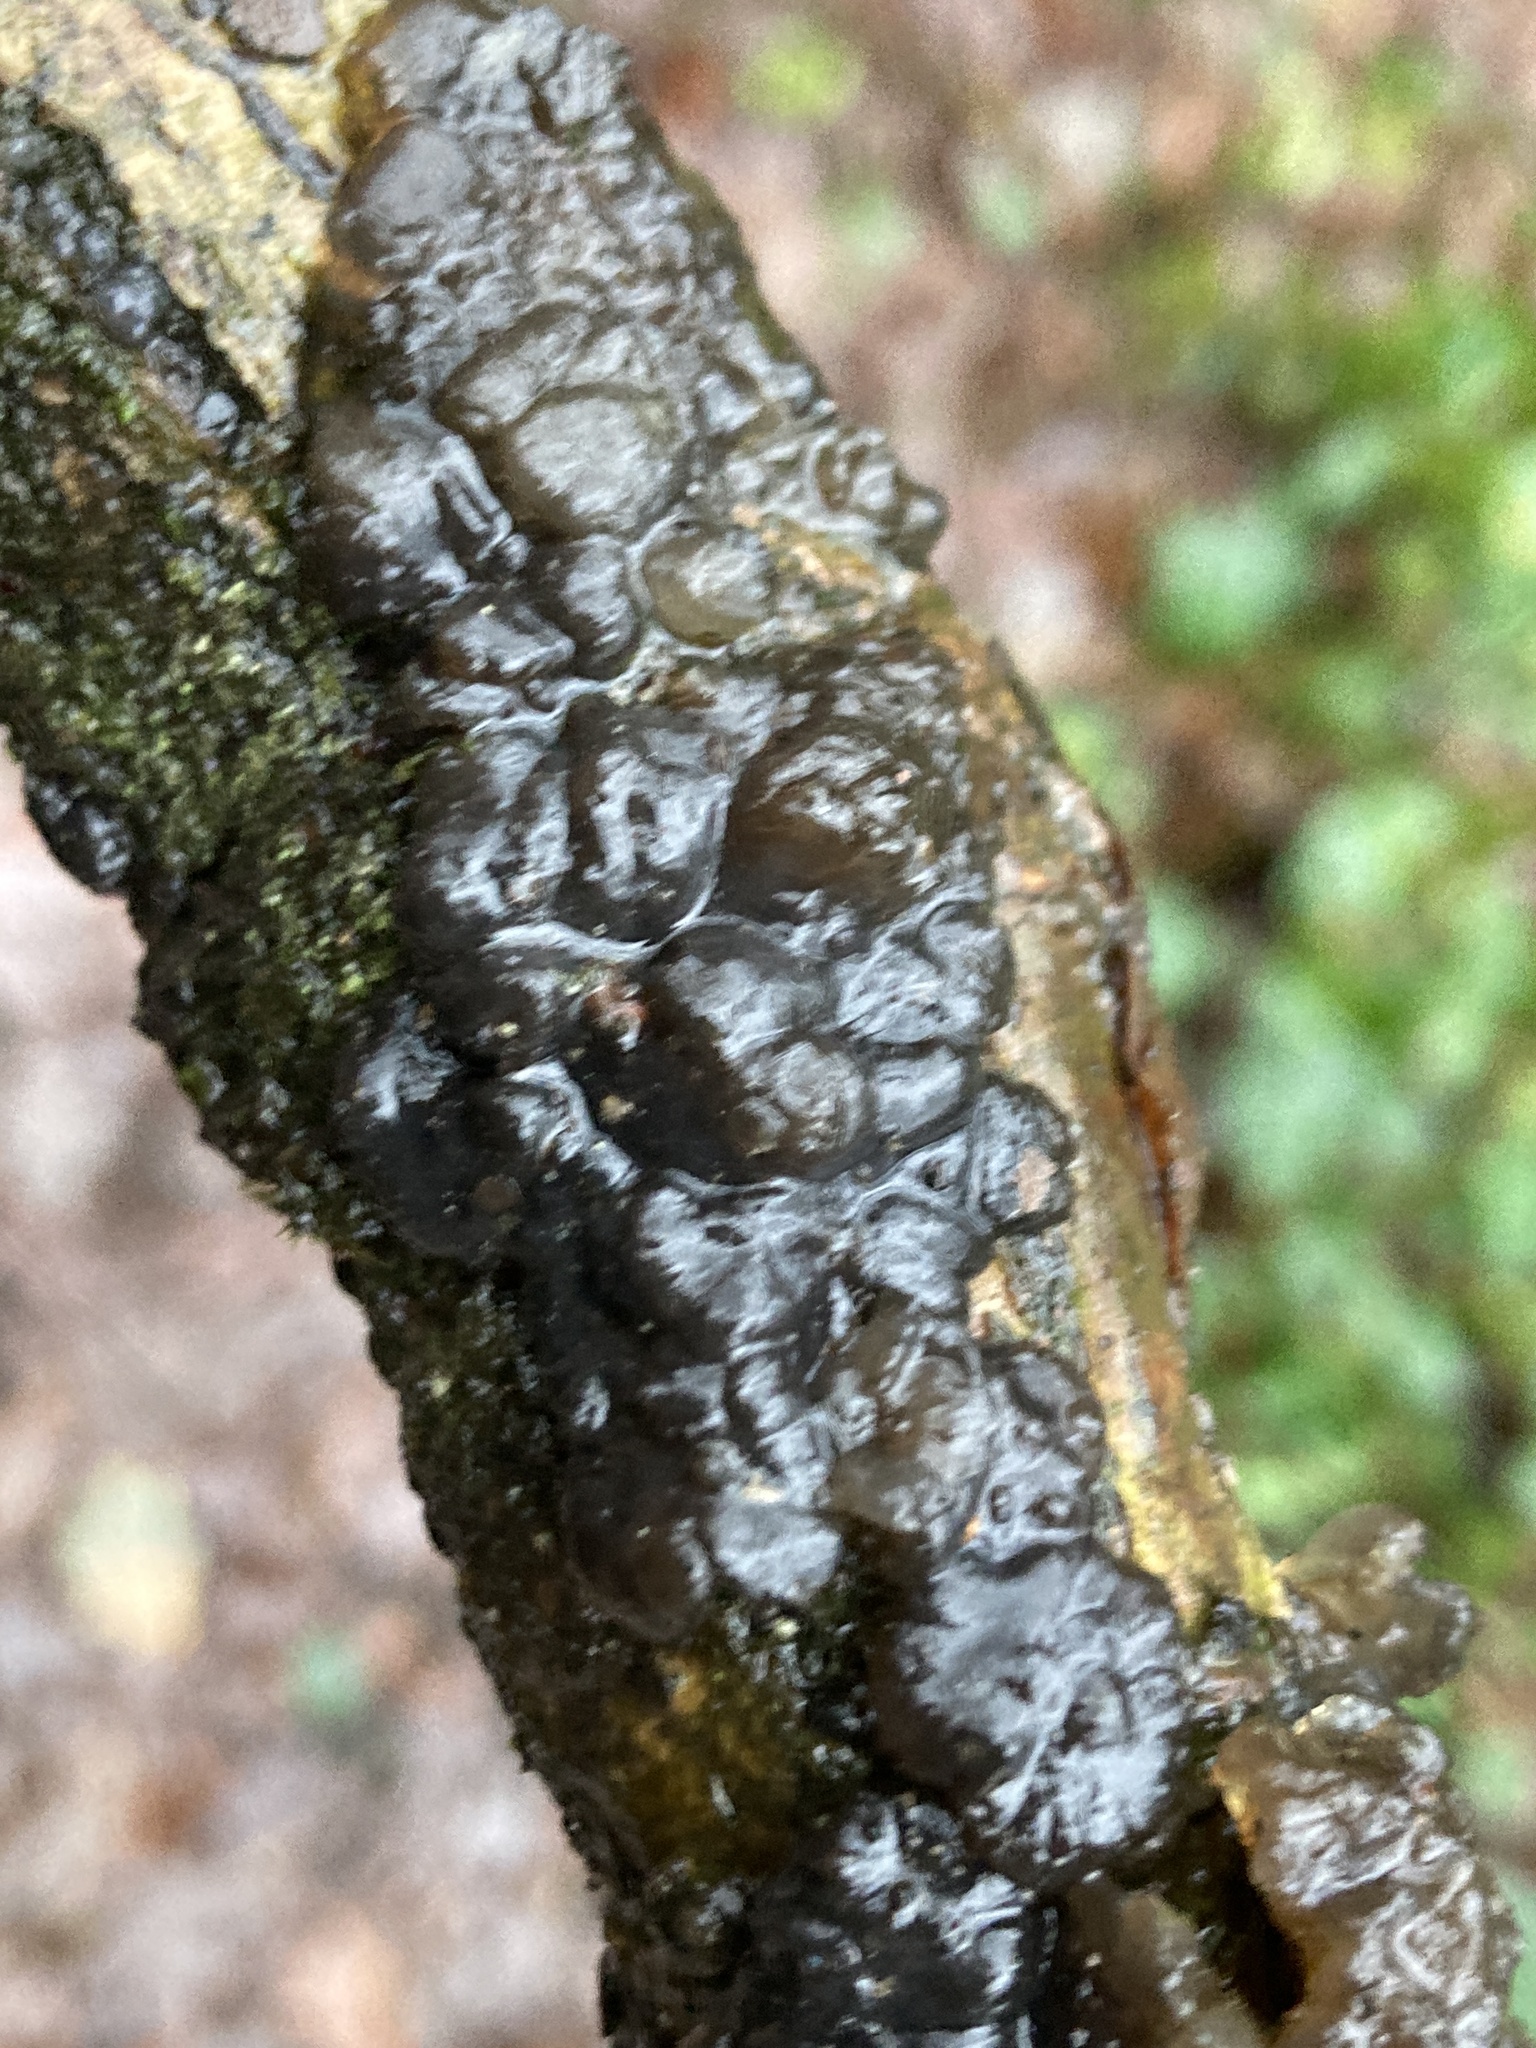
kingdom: Fungi
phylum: Basidiomycota
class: Agaricomycetes
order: Auriculariales
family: Auriculariaceae
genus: Exidia
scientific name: Exidia glandulosa
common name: Witches' butter
